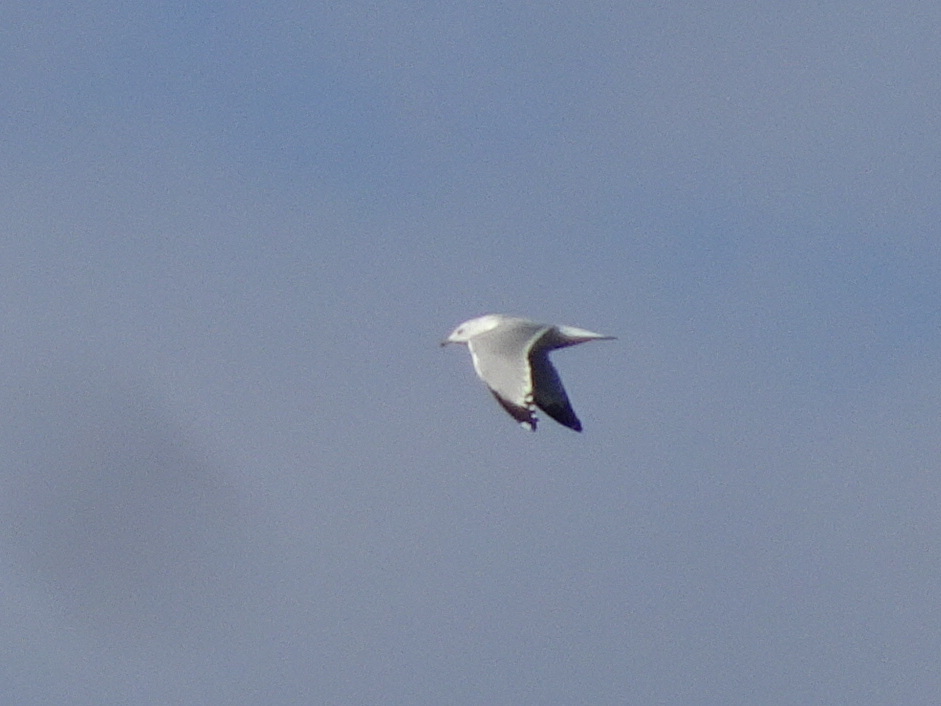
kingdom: Animalia
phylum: Chordata
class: Aves
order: Charadriiformes
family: Laridae
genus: Larus
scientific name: Larus delawarensis
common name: Ring-billed gull
